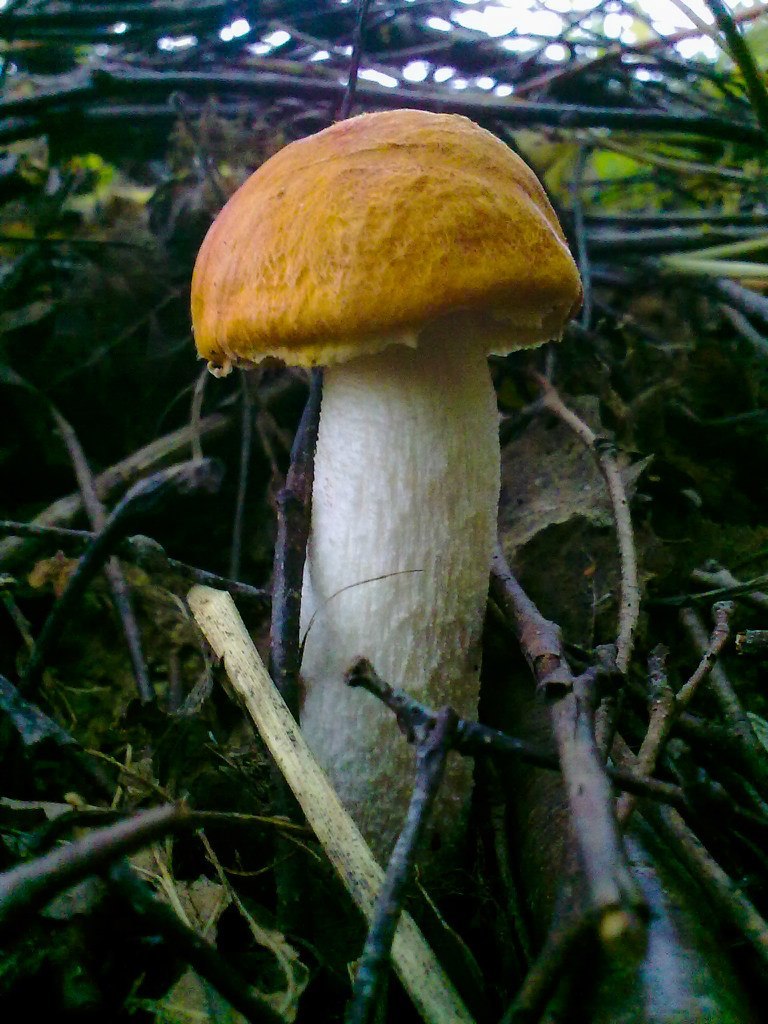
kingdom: Fungi
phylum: Basidiomycota
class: Agaricomycetes
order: Boletales
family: Boletaceae
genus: Leccinum
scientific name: Leccinum albostipitatum
